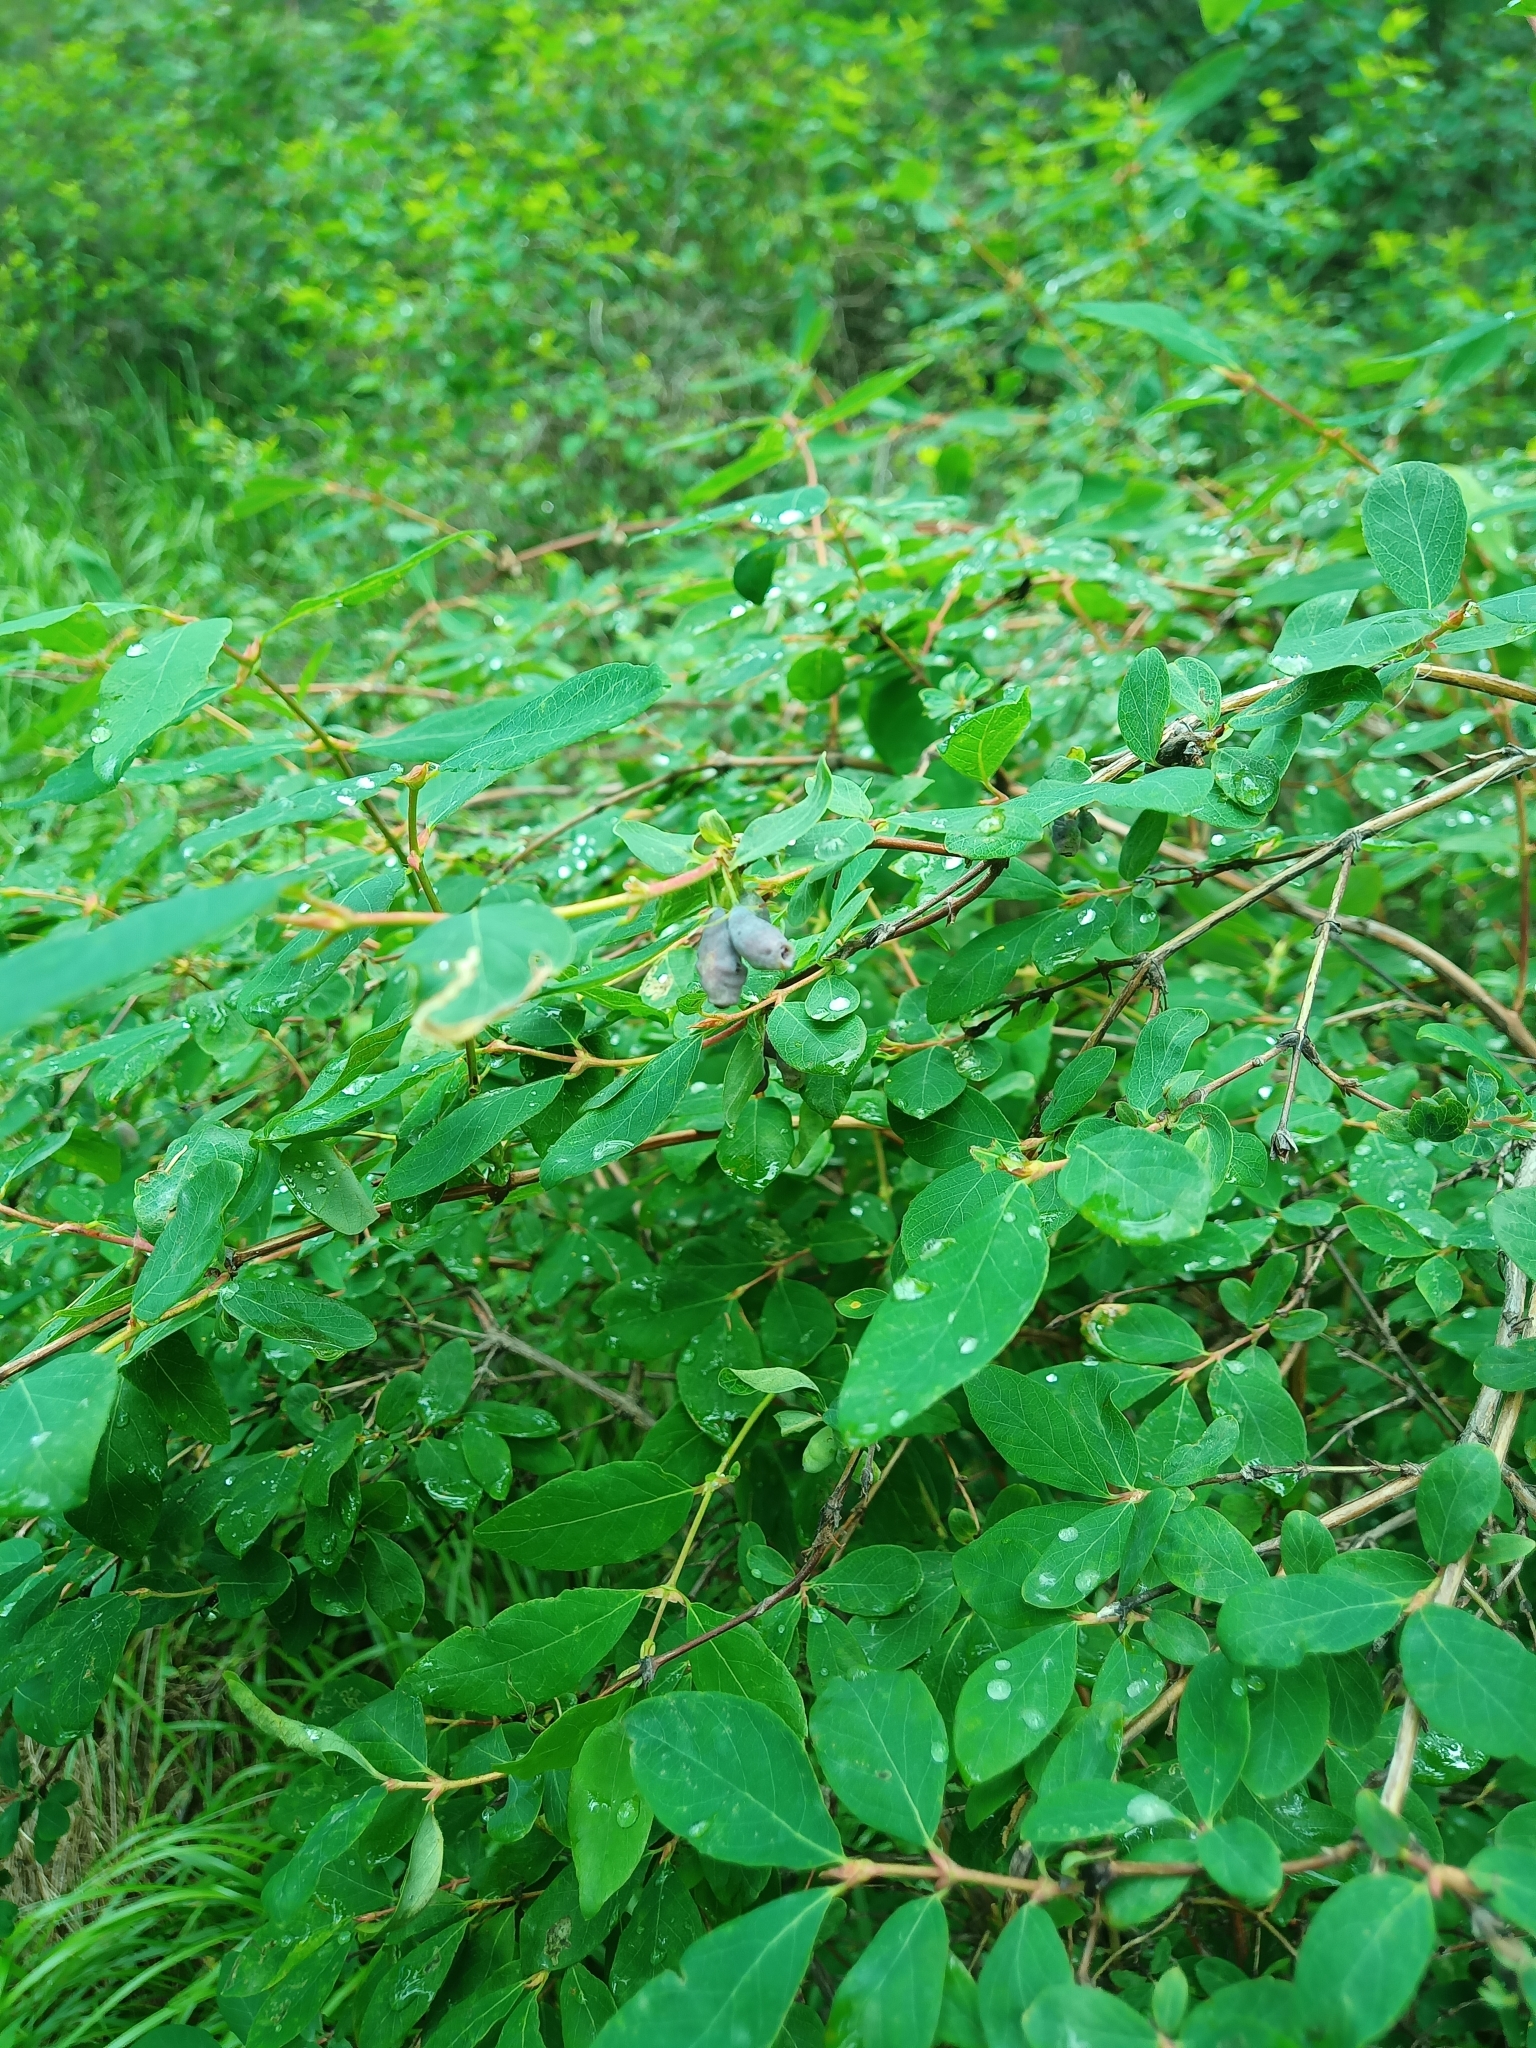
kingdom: Plantae
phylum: Tracheophyta
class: Magnoliopsida
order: Dipsacales
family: Caprifoliaceae
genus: Lonicera
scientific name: Lonicera caerulea
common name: Blue honeysuckle
